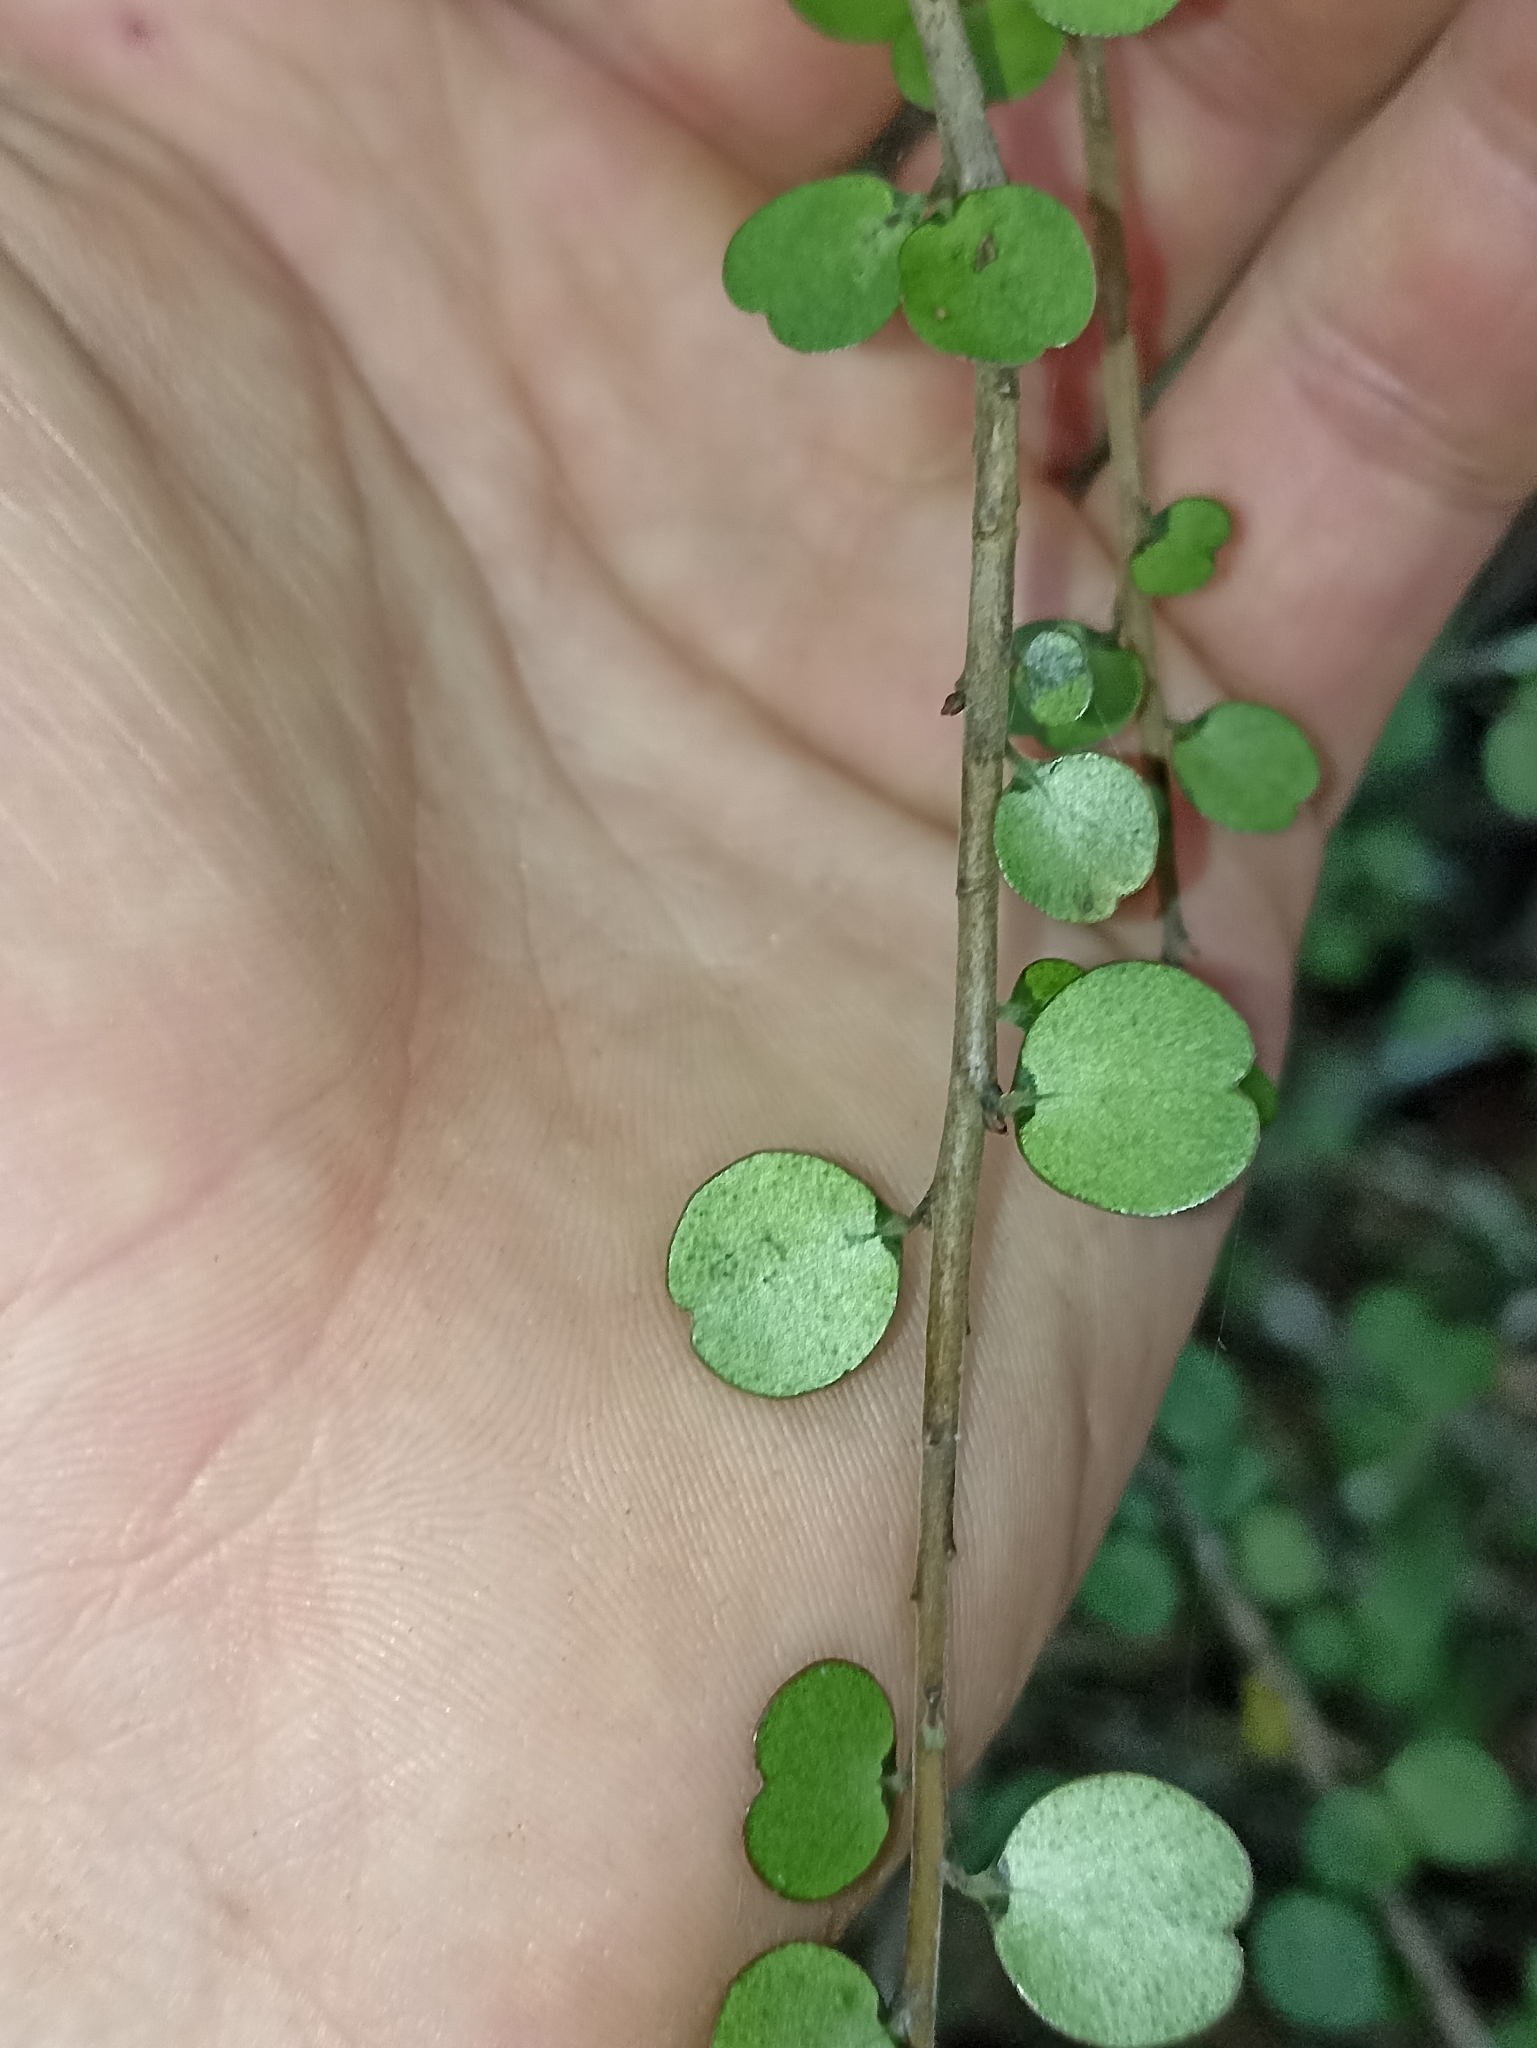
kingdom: Plantae
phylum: Tracheophyta
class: Magnoliopsida
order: Ericales
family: Primulaceae
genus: Myrsine
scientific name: Myrsine divaricata
